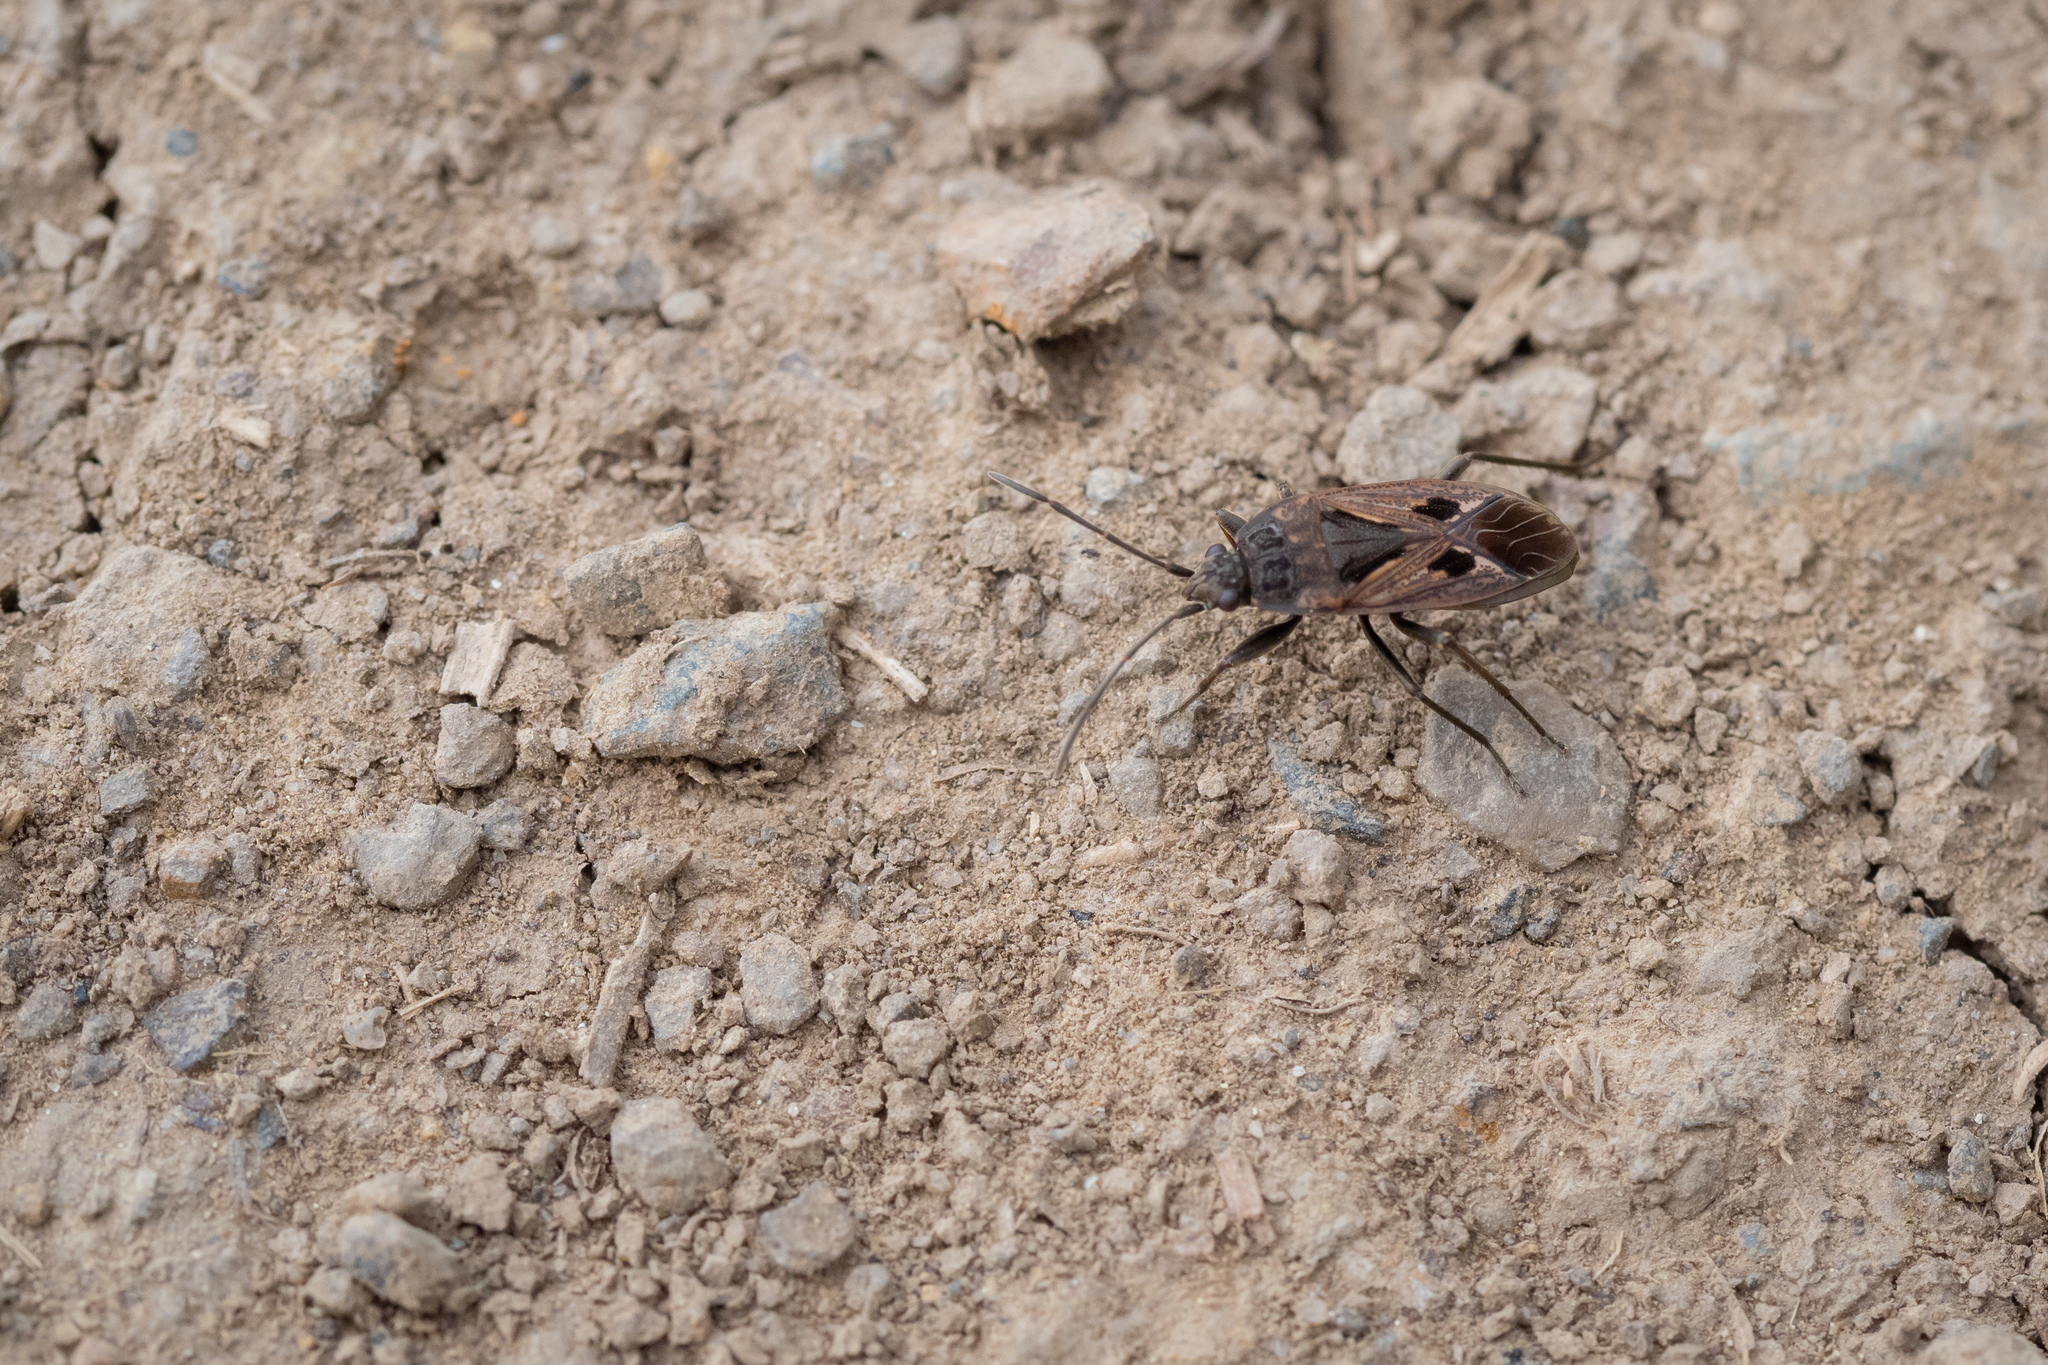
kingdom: Animalia
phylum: Arthropoda
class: Insecta
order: Hemiptera
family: Rhyparochromidae
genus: Rhyparochromus
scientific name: Rhyparochromus pini
